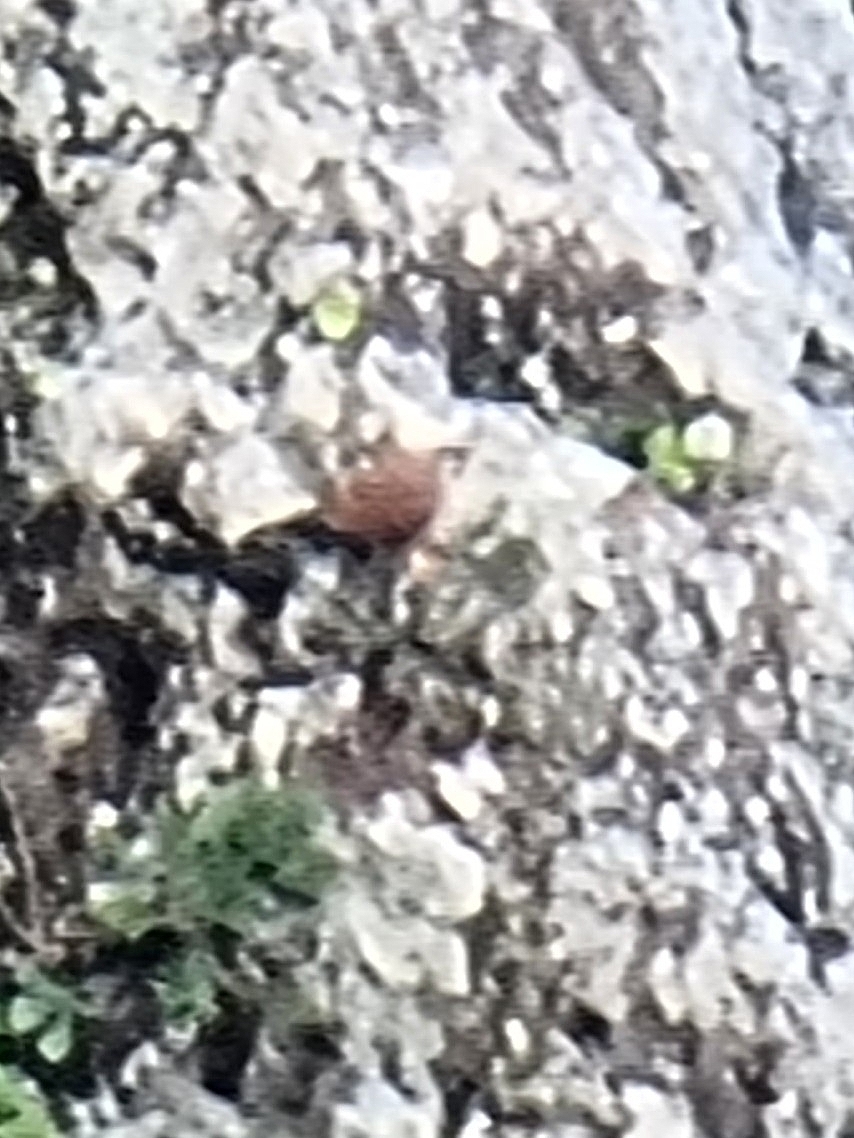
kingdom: Animalia
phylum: Chordata
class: Aves
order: Falconiformes
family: Falconidae
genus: Falco
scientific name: Falco tinnunculus
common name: Common kestrel
